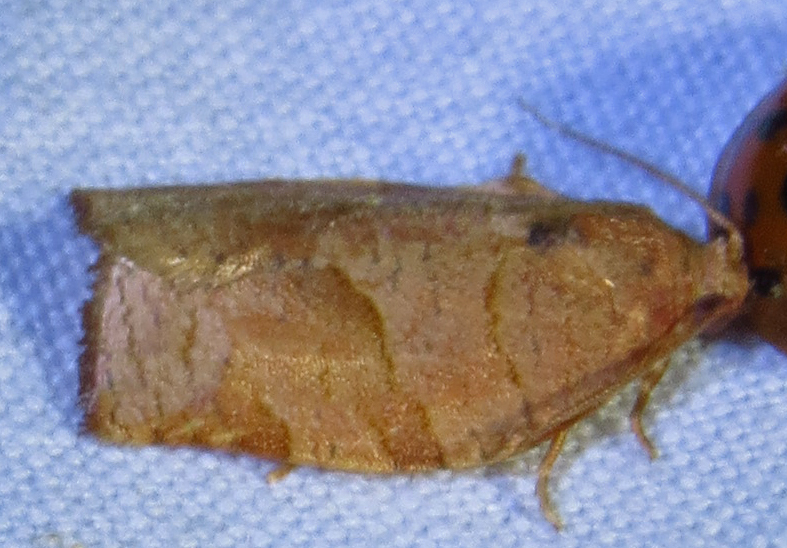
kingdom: Animalia
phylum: Arthropoda
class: Insecta
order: Lepidoptera
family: Tortricidae
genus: Choristoneura
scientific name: Choristoneura rosaceana
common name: Oblique-banded leafroller moth
